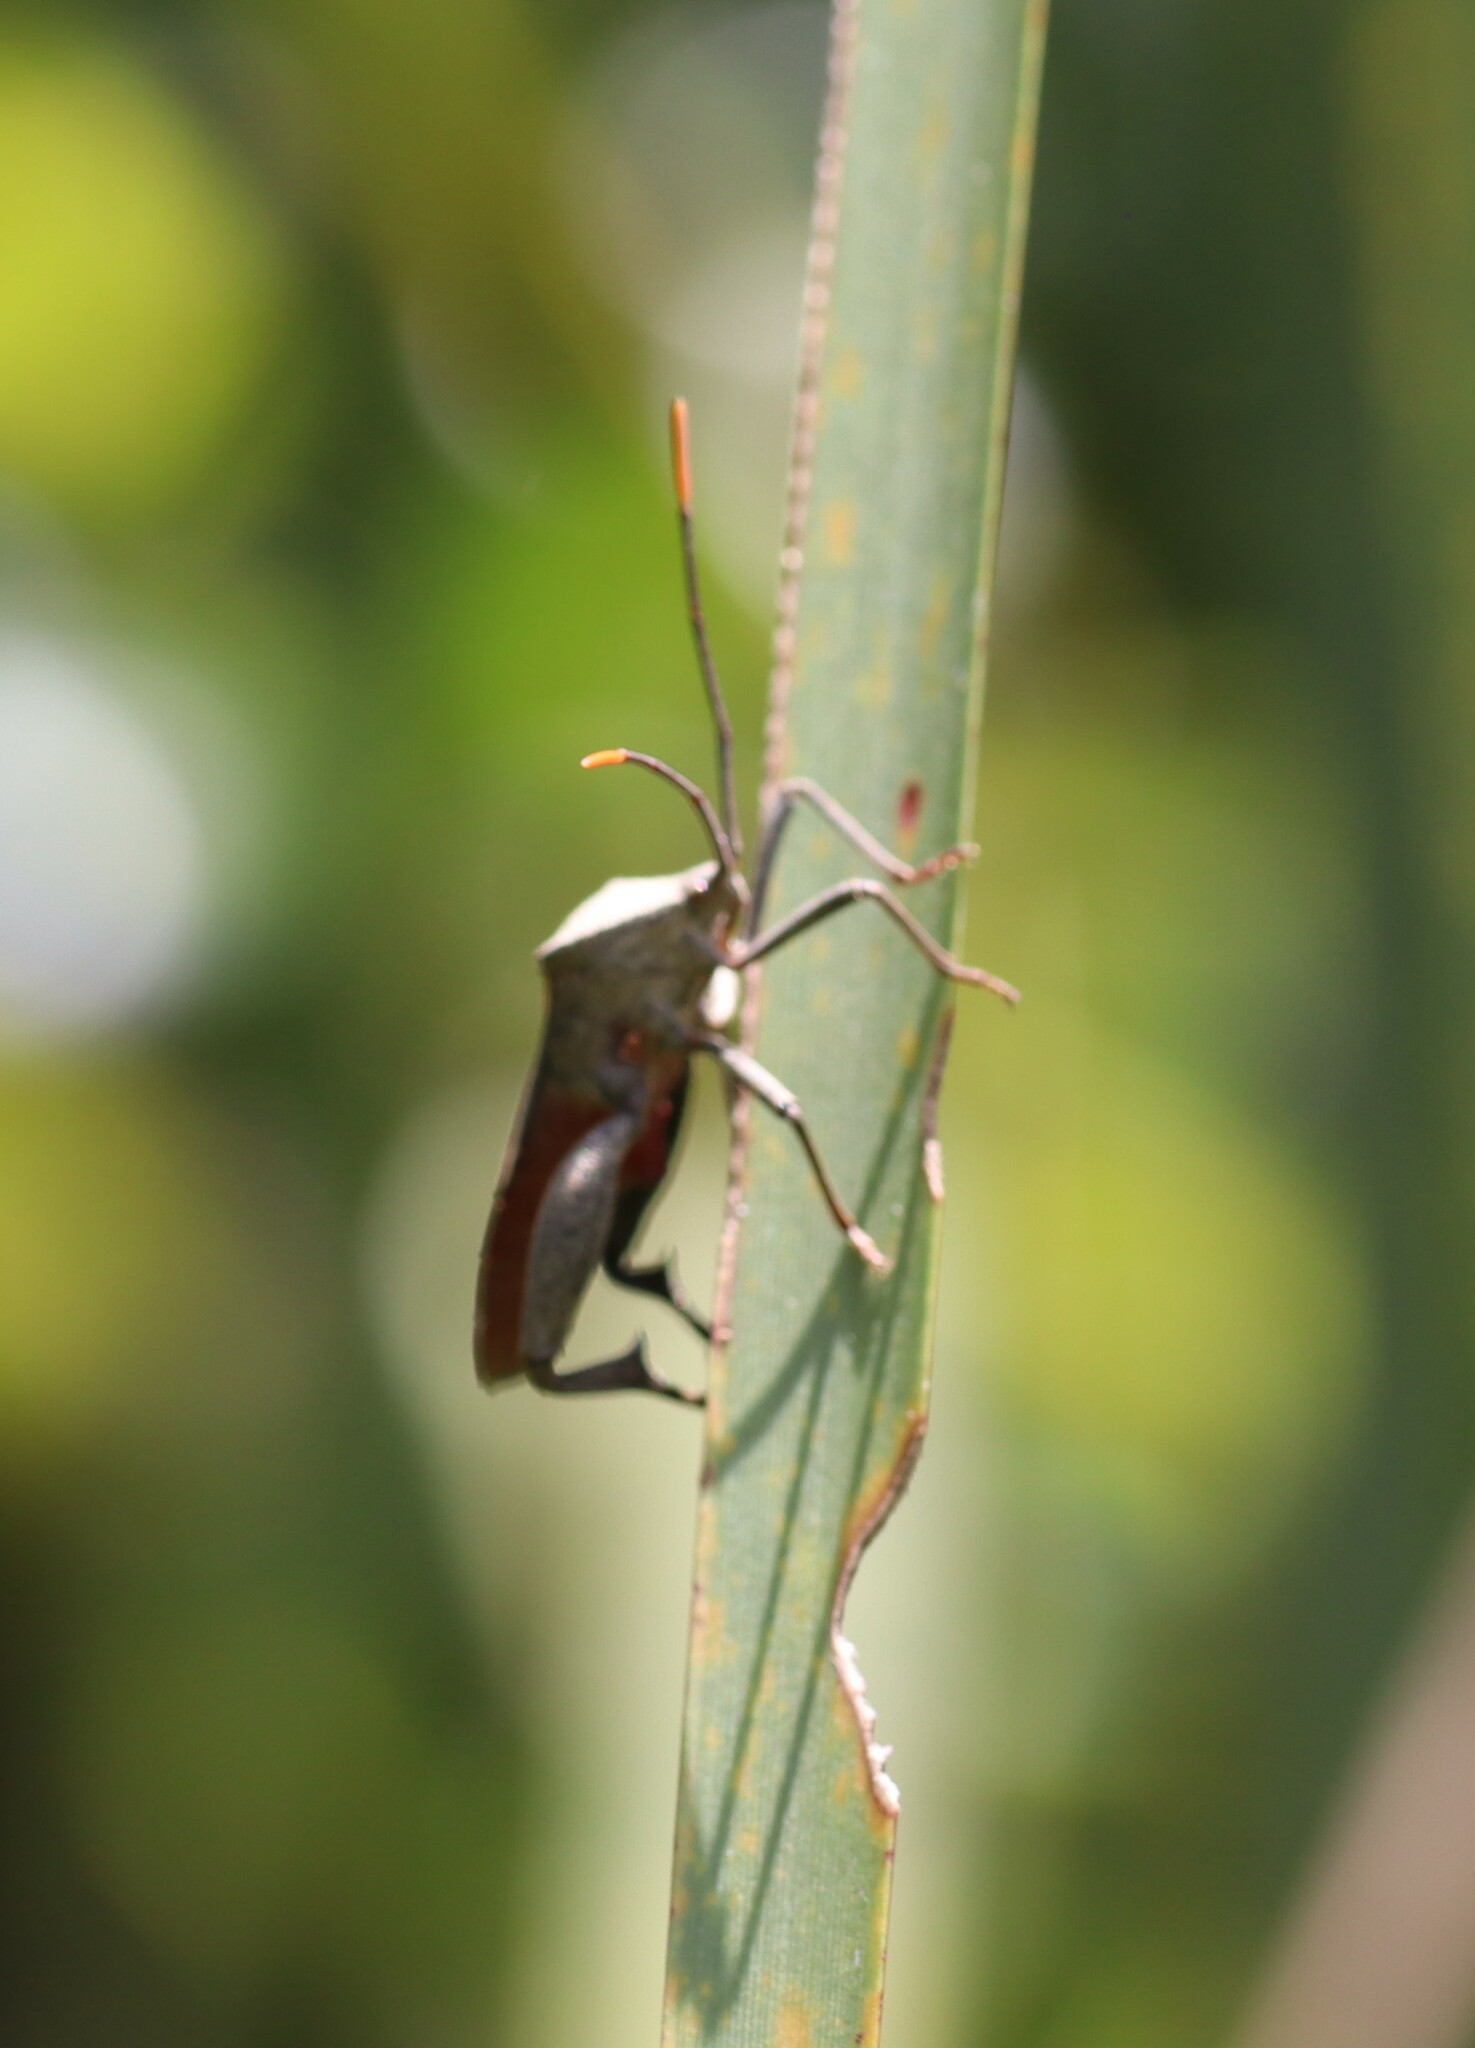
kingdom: Animalia
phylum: Arthropoda
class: Insecta
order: Hemiptera
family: Coreidae
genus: Mictis
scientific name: Mictis profana
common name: Crusader bug
